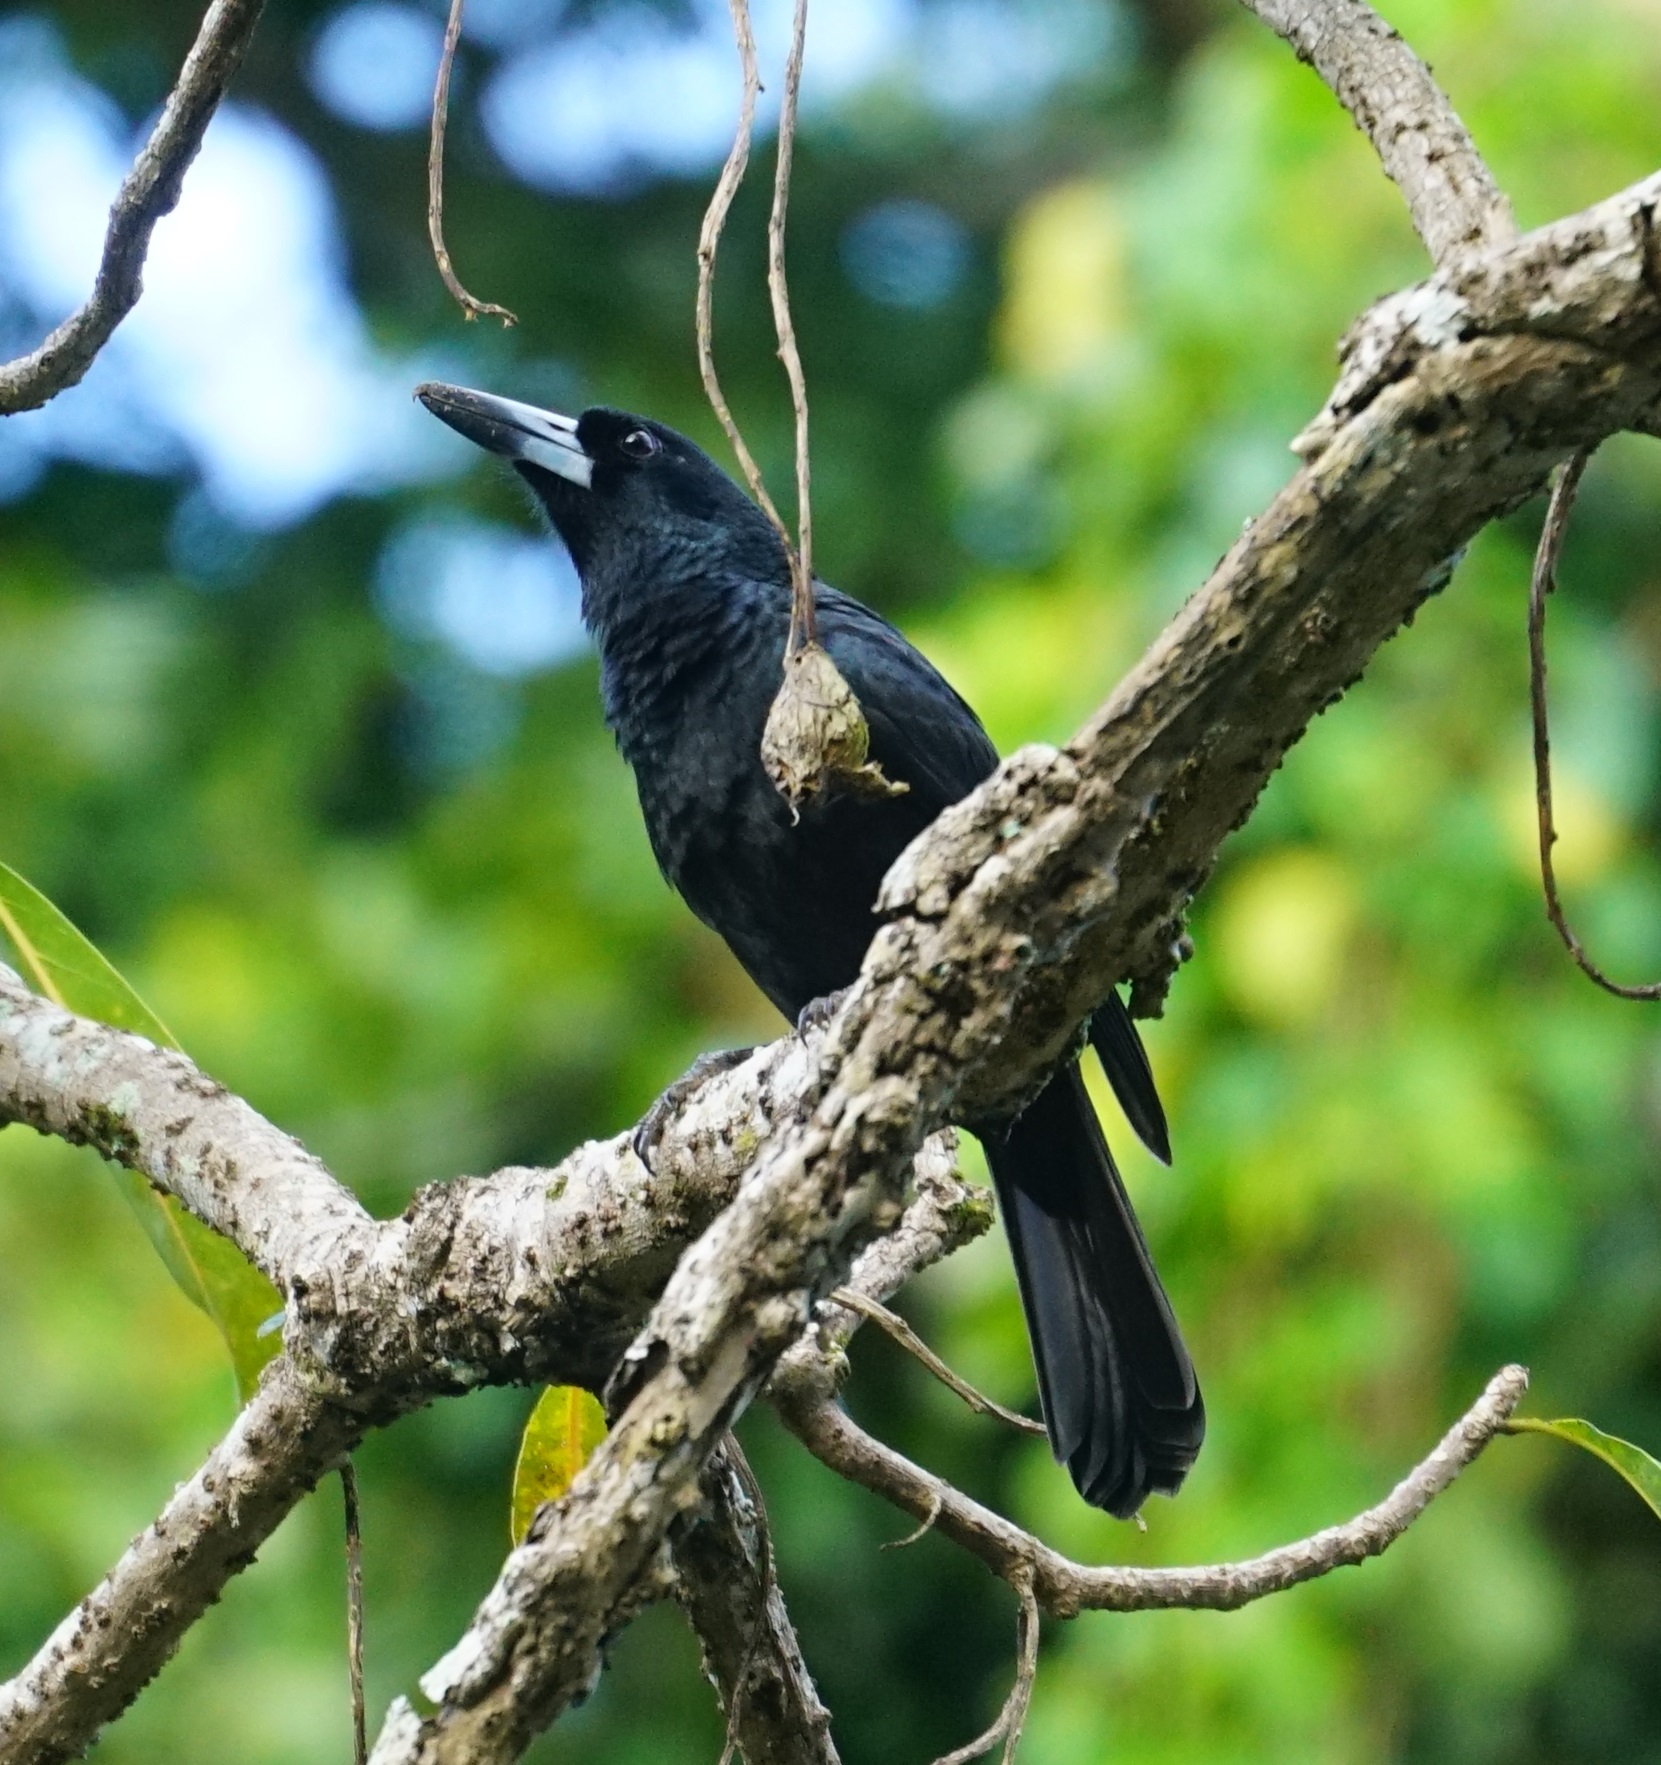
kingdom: Animalia
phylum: Chordata
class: Aves
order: Passeriformes
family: Artamidae
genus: Melloria
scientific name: Melloria quoyi
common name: Black butcherbird
